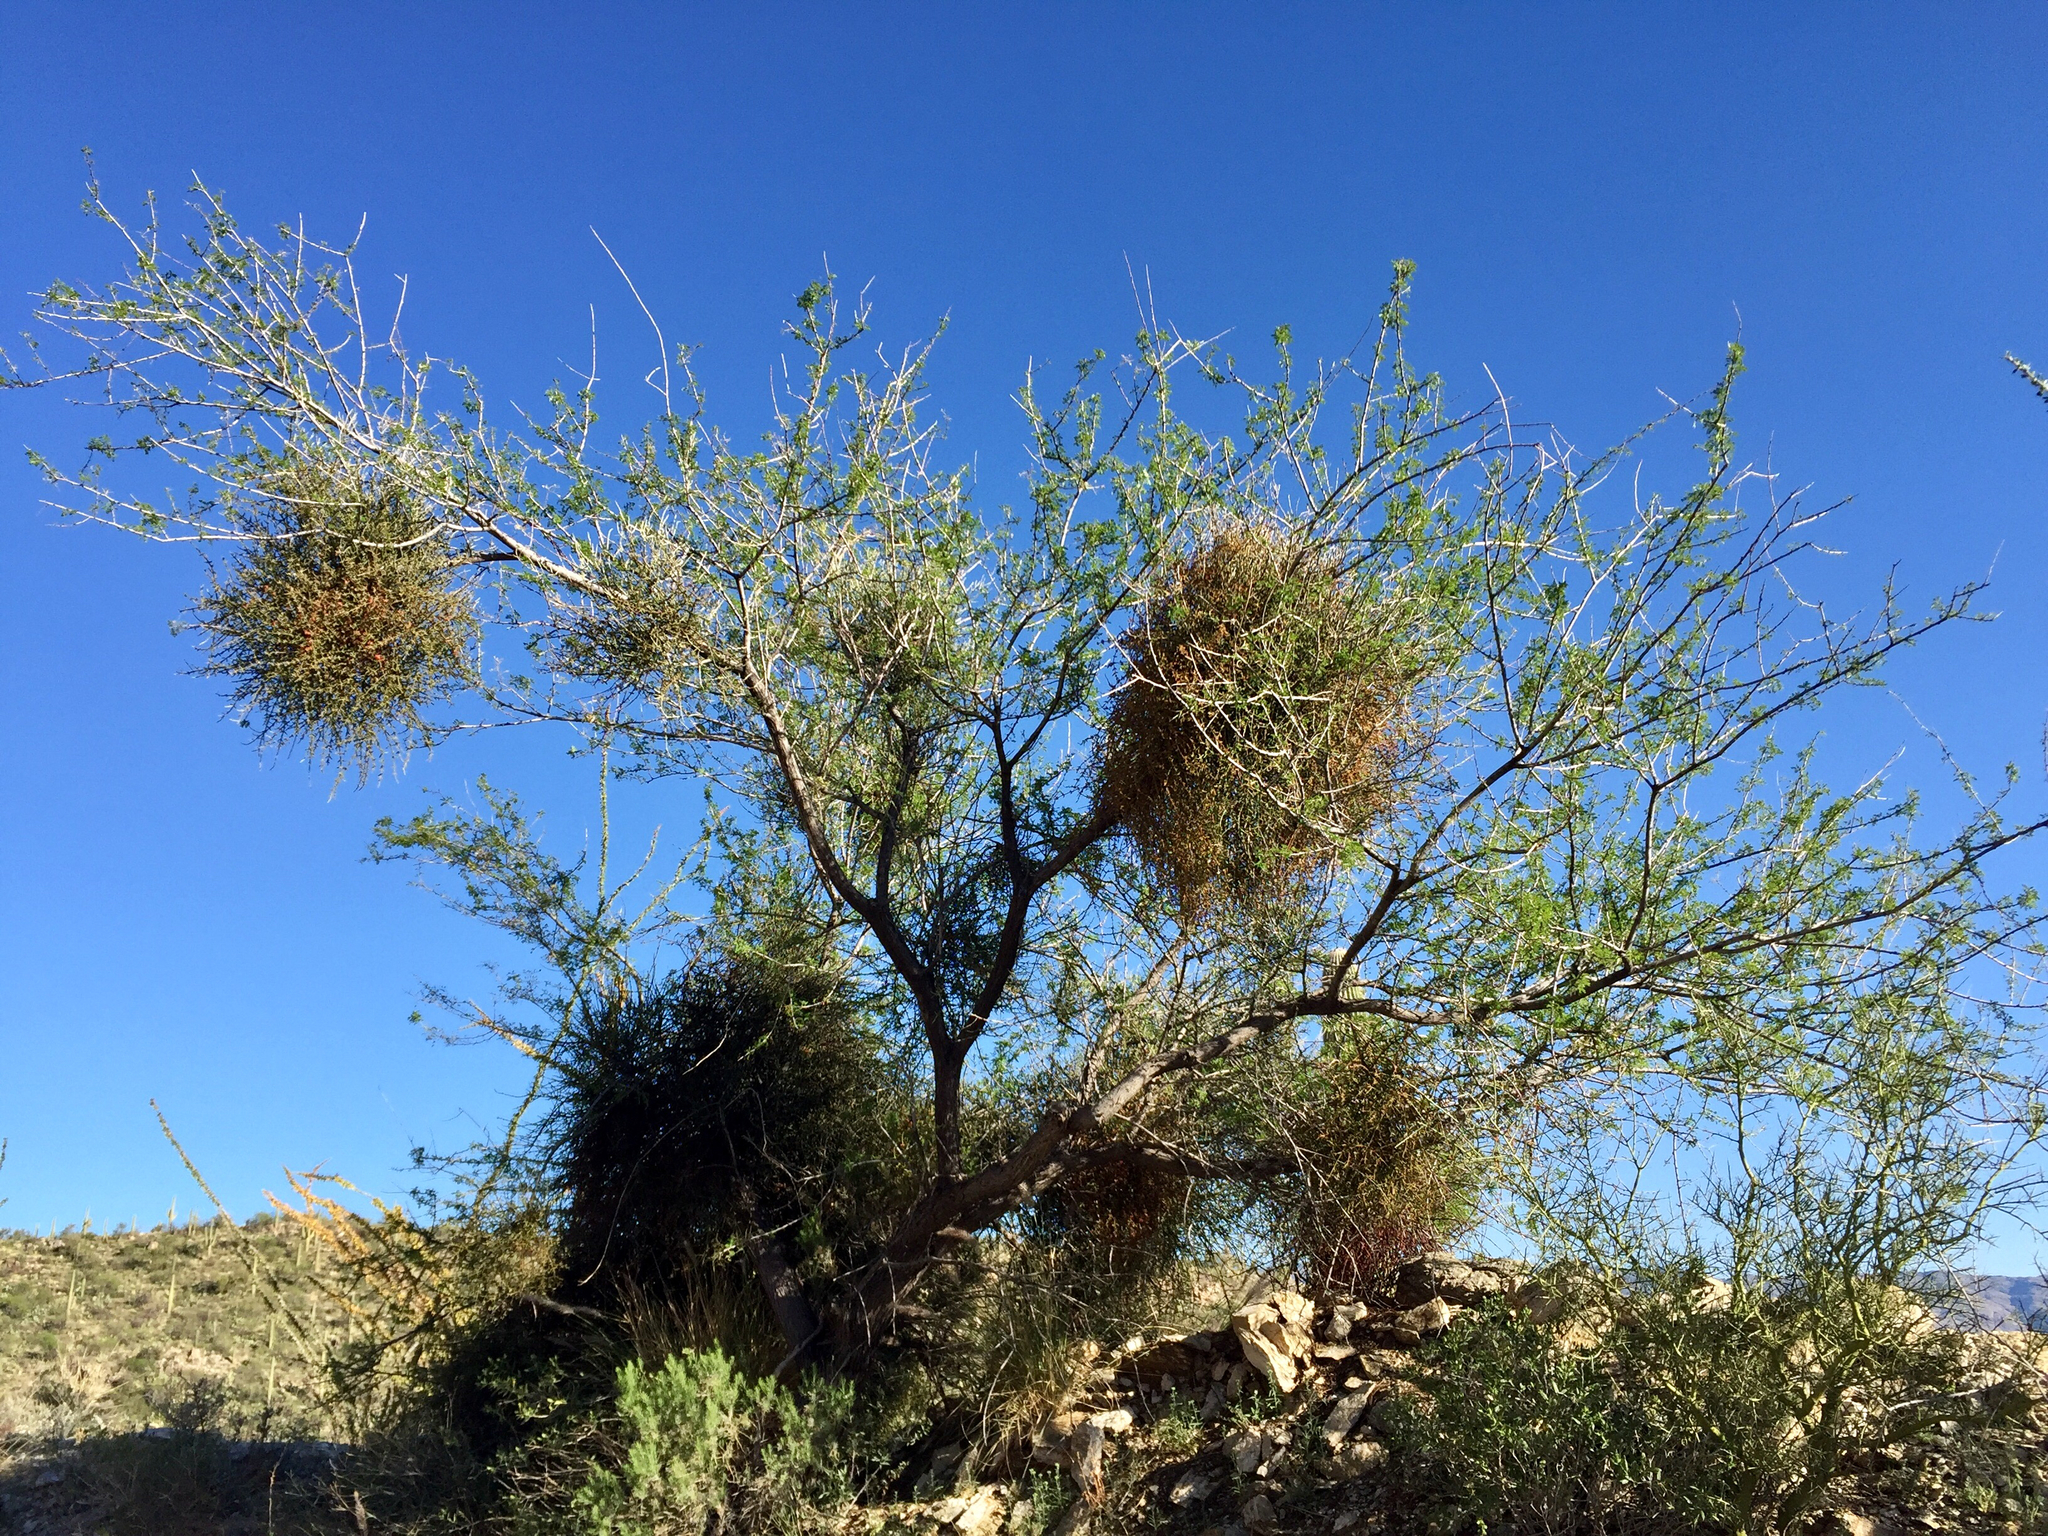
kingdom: Plantae
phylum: Tracheophyta
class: Magnoliopsida
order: Santalales
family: Viscaceae
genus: Phoradendron
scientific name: Phoradendron californicum
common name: Acacia mistletoe
